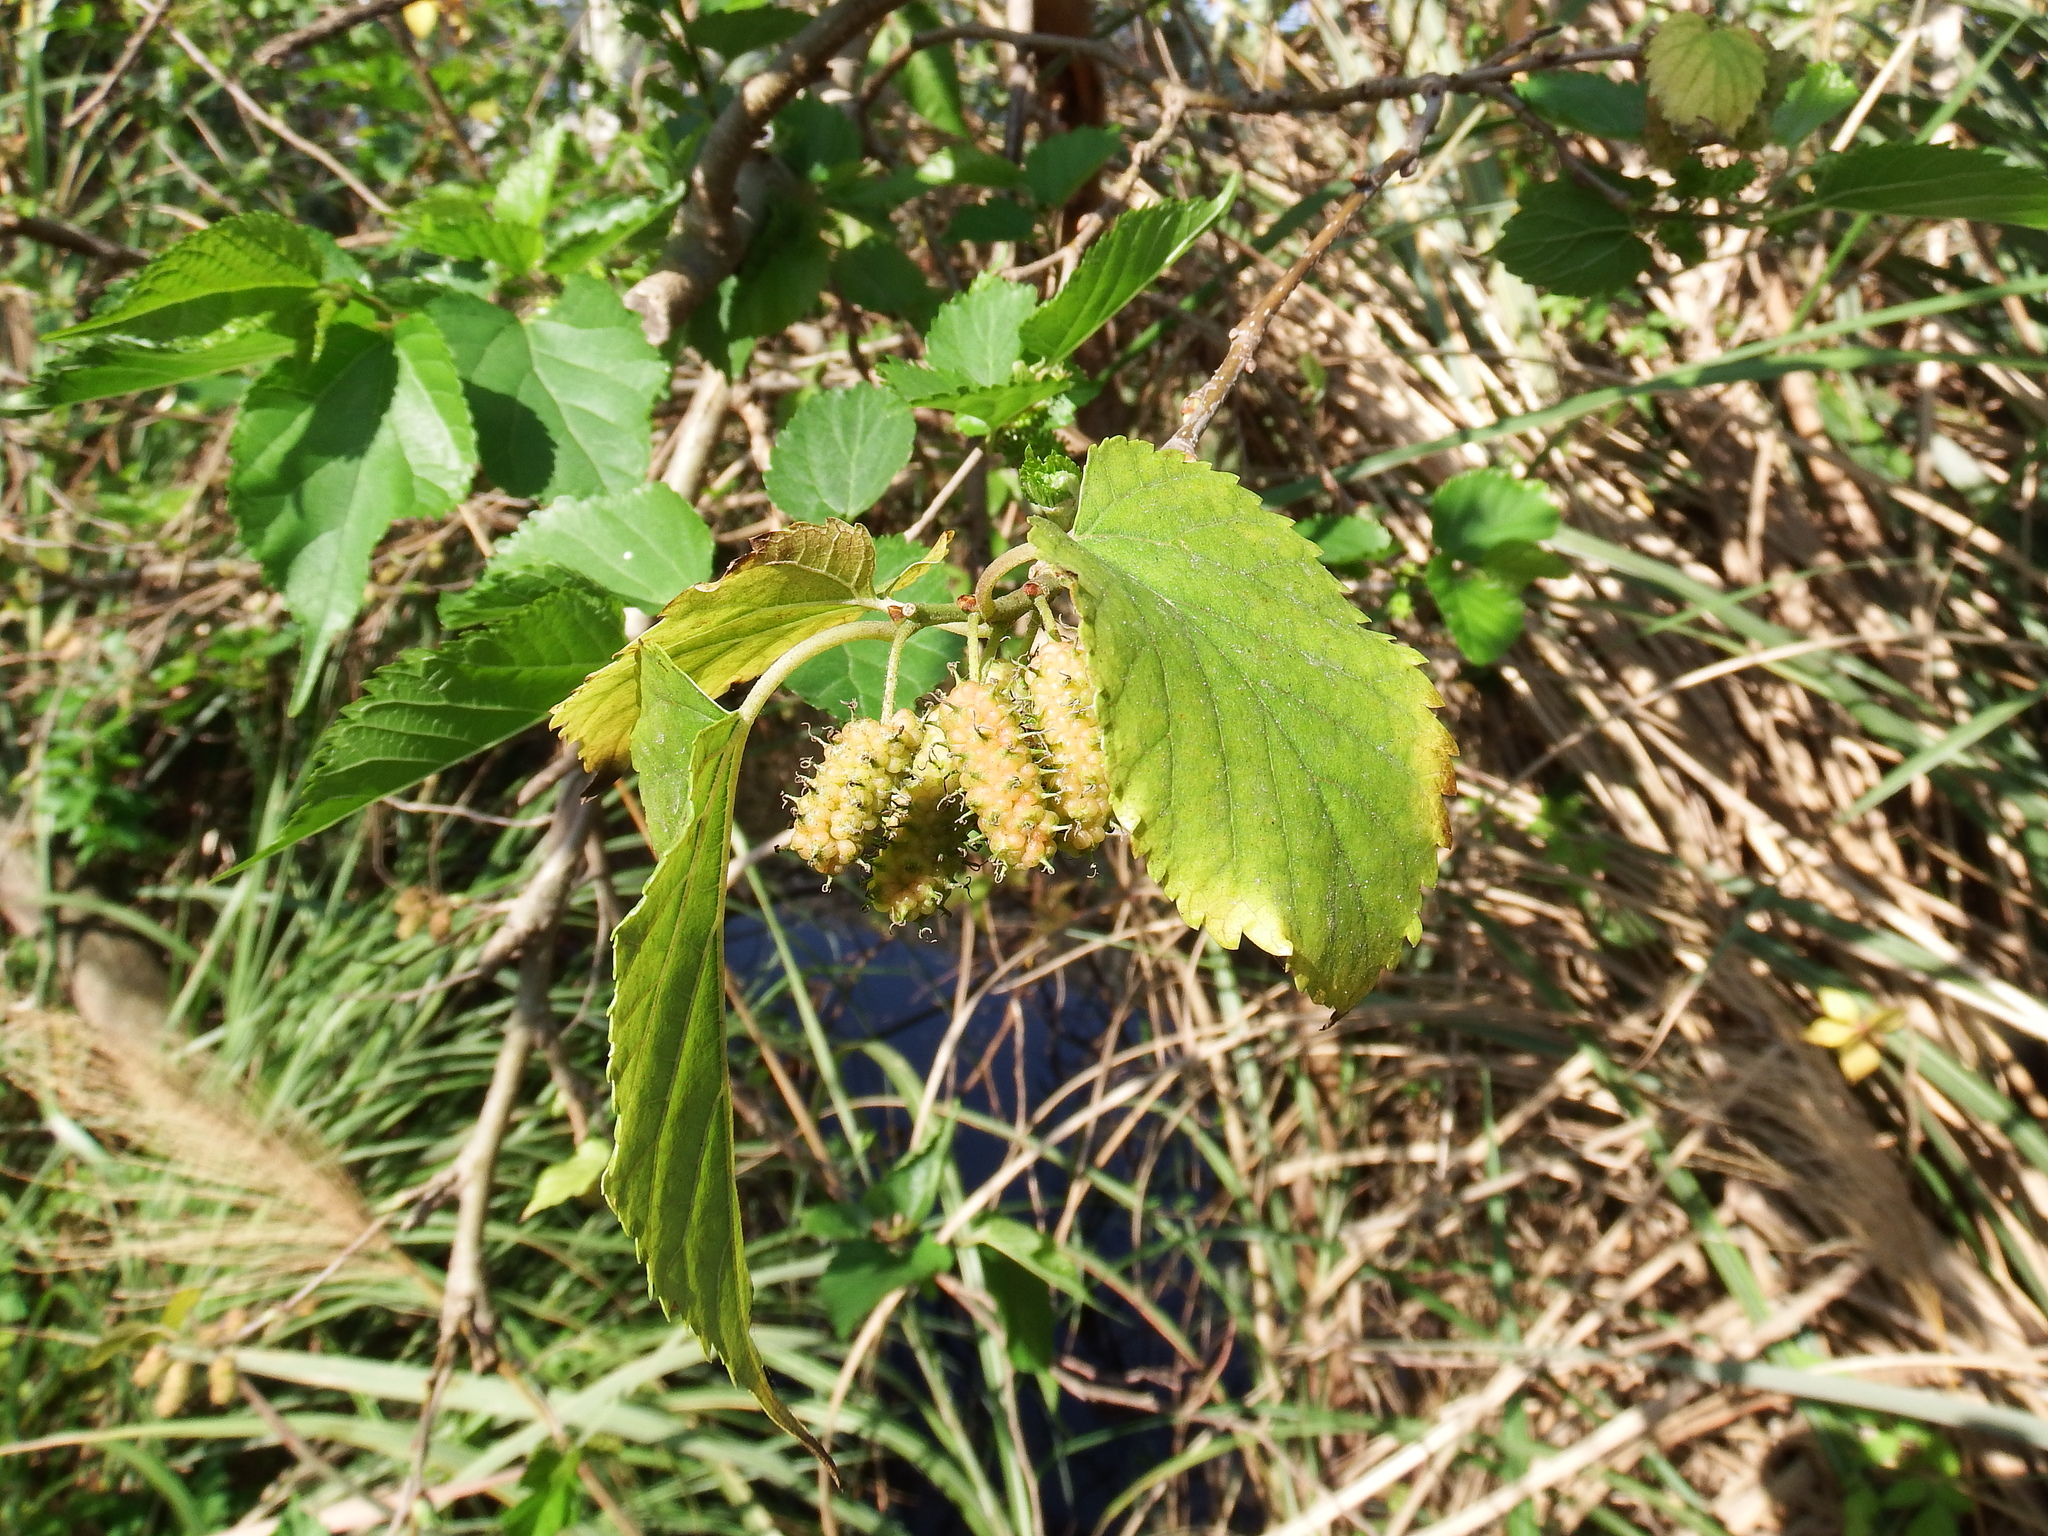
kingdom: Plantae
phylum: Tracheophyta
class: Magnoliopsida
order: Rosales
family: Moraceae
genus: Morus
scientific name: Morus indica
